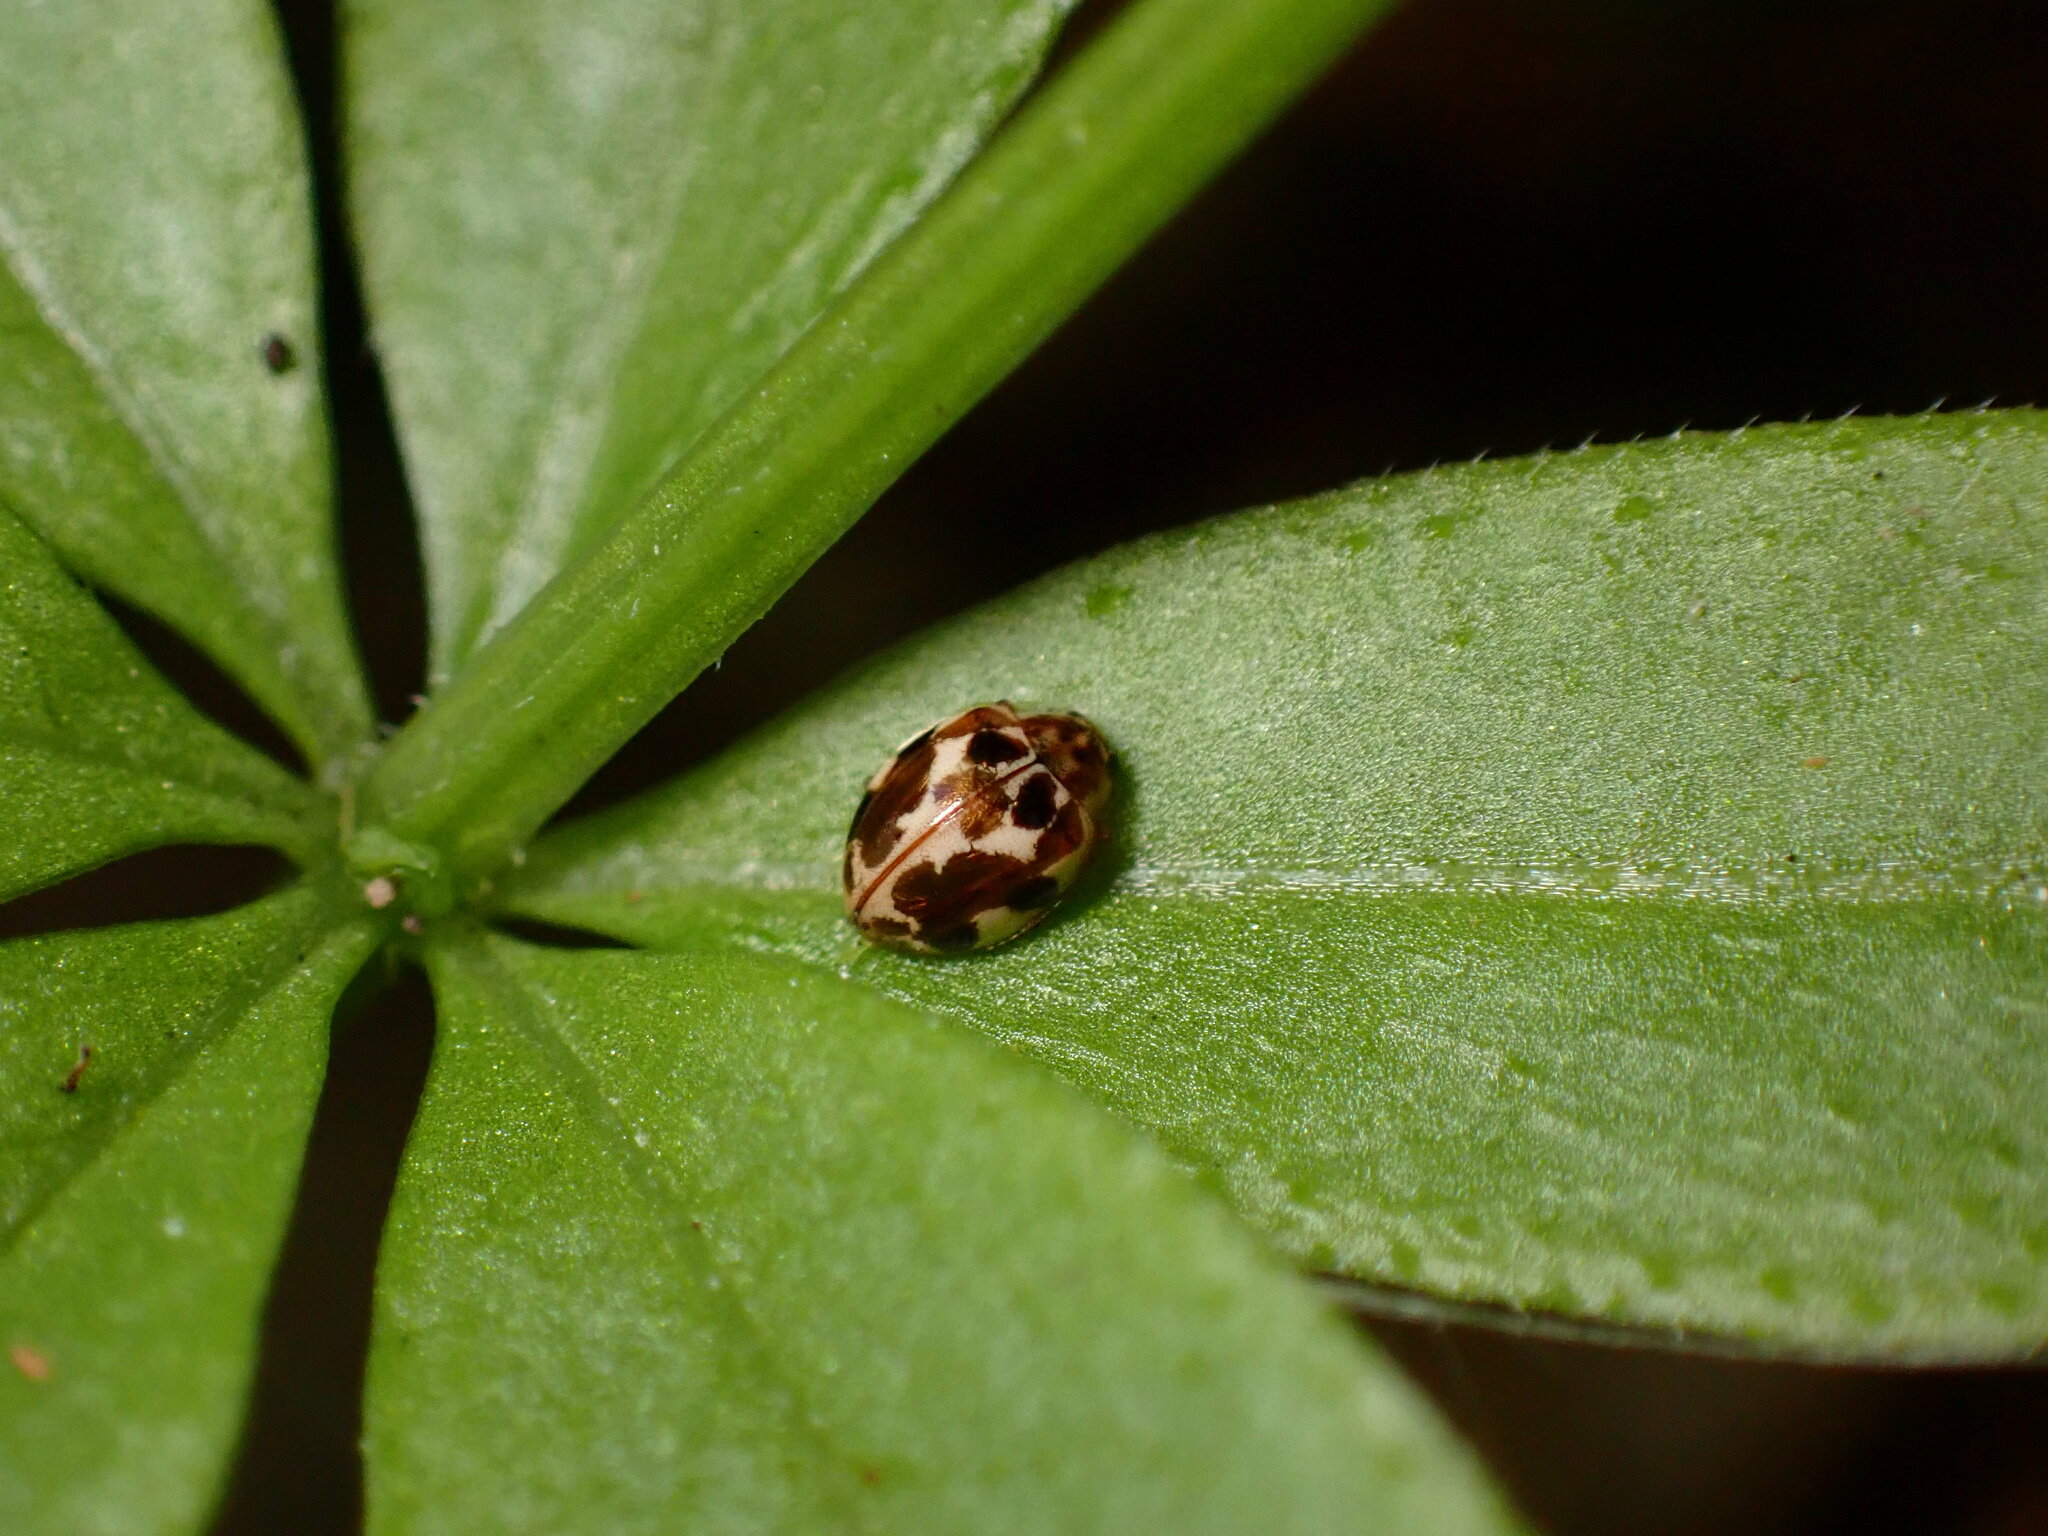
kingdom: Animalia
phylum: Arthropoda
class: Insecta
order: Coleoptera
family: Coccinellidae
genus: Psyllobora
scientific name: Psyllobora vigintimaculata
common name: Ladybird beetle
